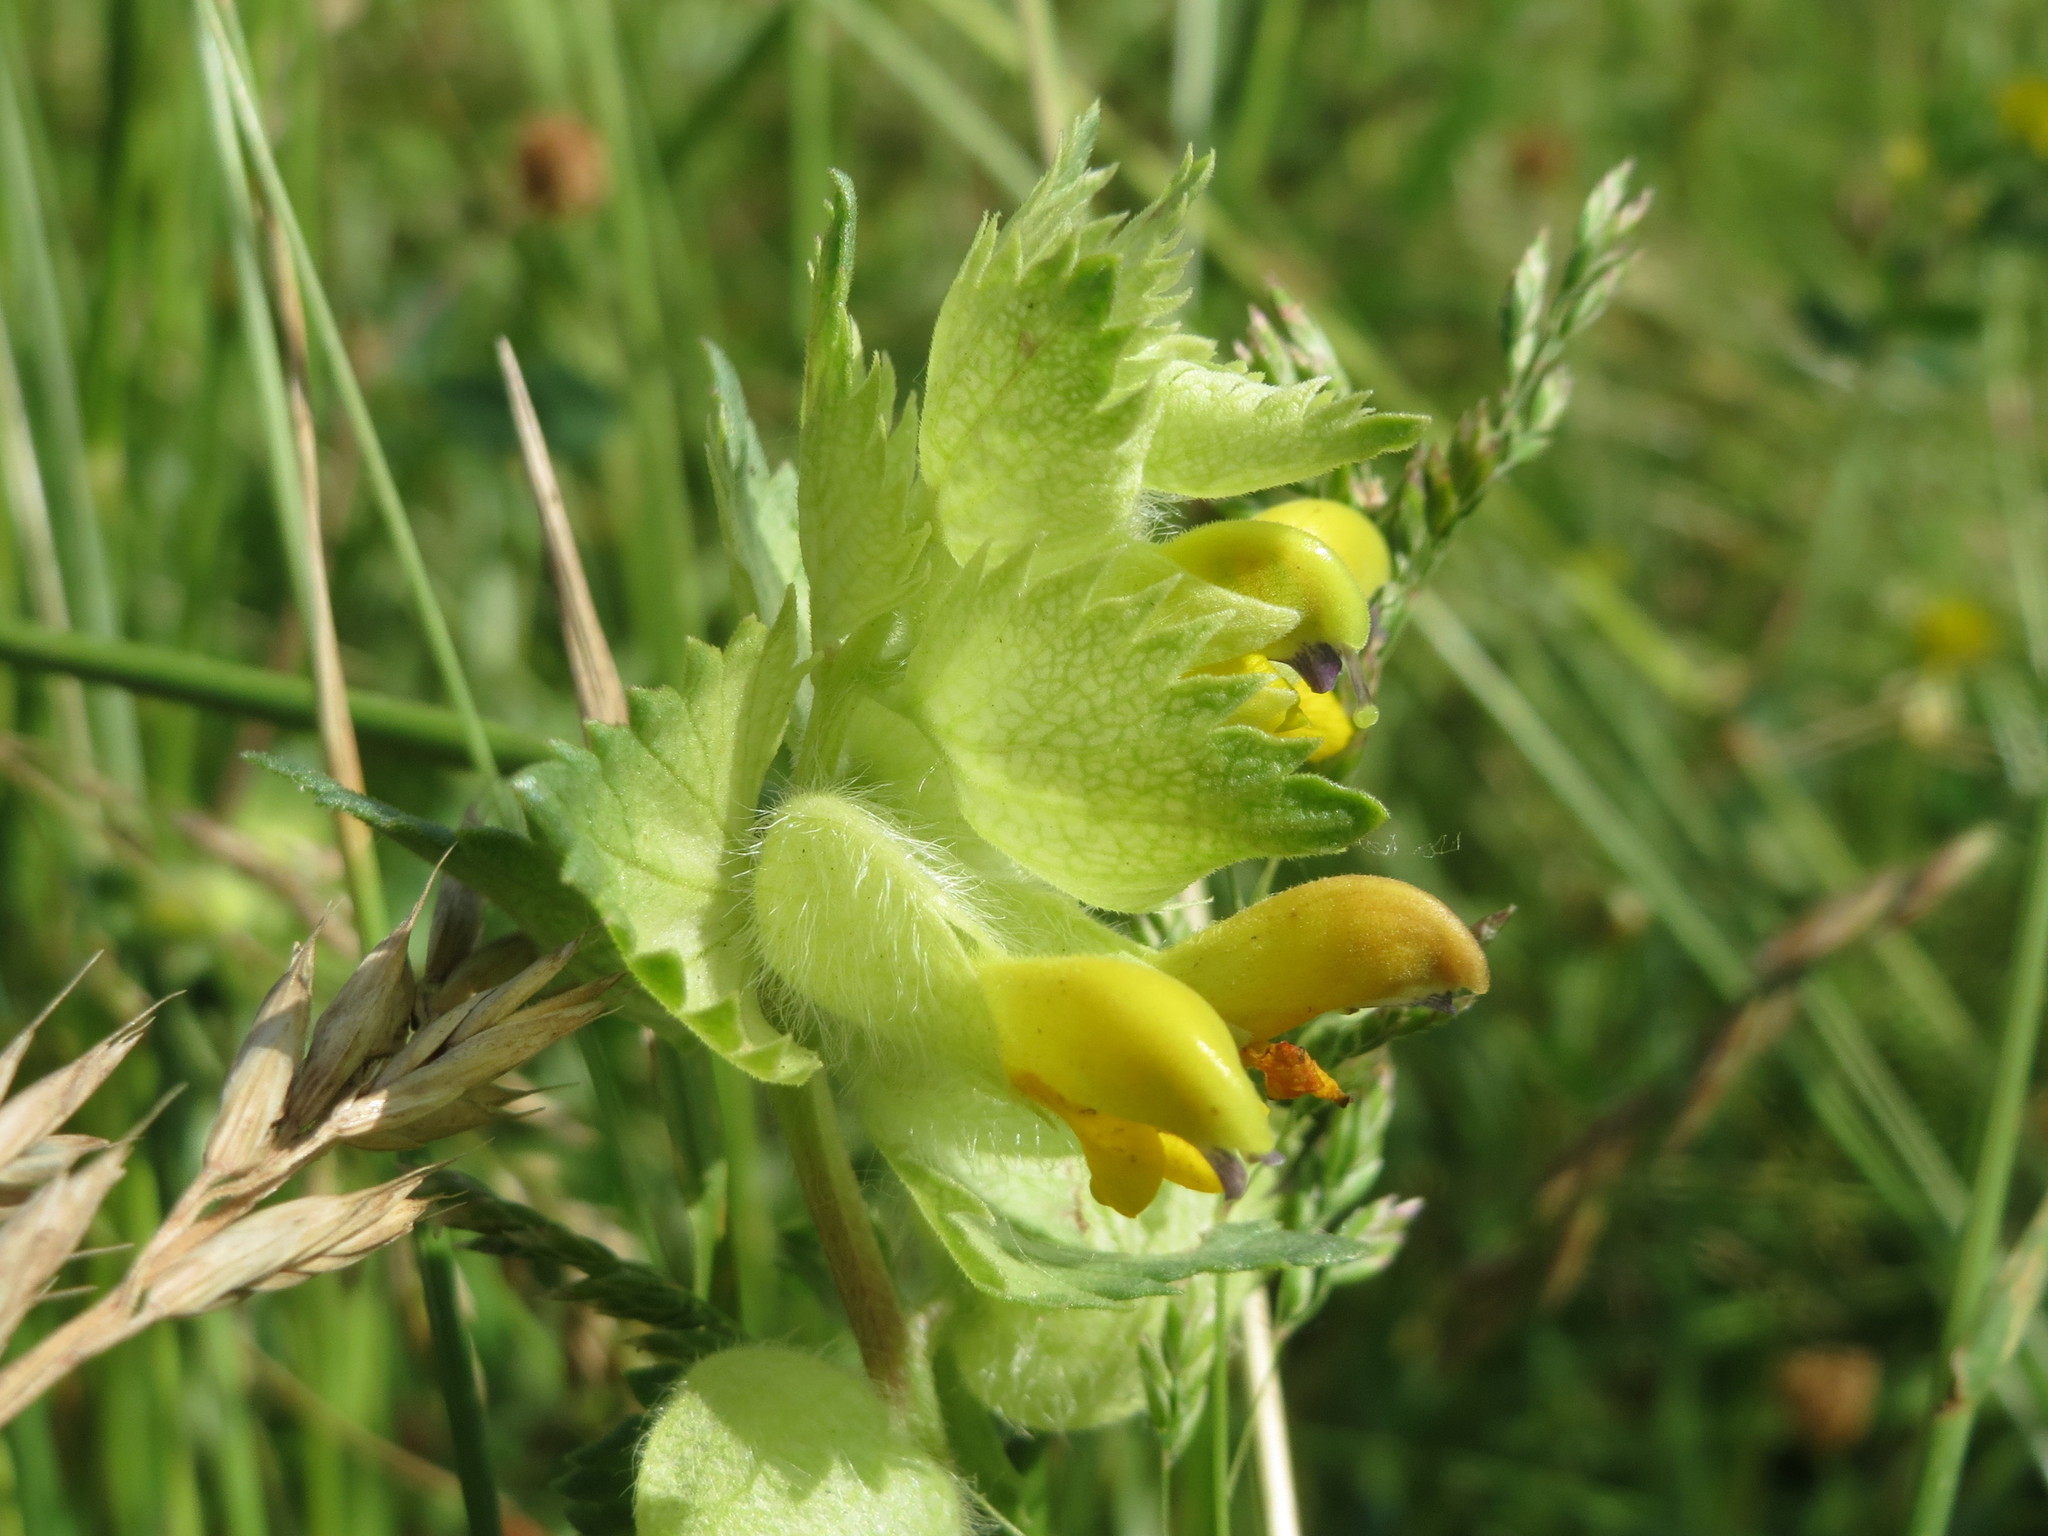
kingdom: Plantae
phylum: Tracheophyta
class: Magnoliopsida
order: Lamiales
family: Orobanchaceae
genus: Rhinanthus
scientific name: Rhinanthus alectorolophus
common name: Greater yellow-rattle
